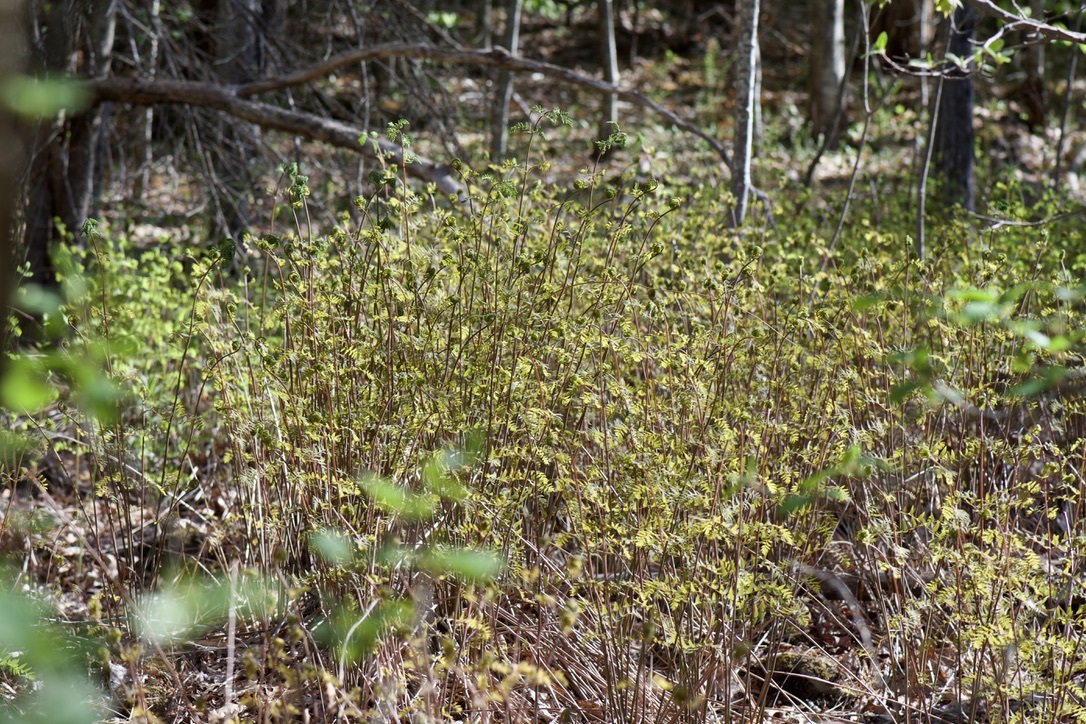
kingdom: Plantae
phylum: Tracheophyta
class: Polypodiopsida
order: Osmundales
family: Osmundaceae
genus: Osmunda
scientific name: Osmunda spectabilis
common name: American royal fern
